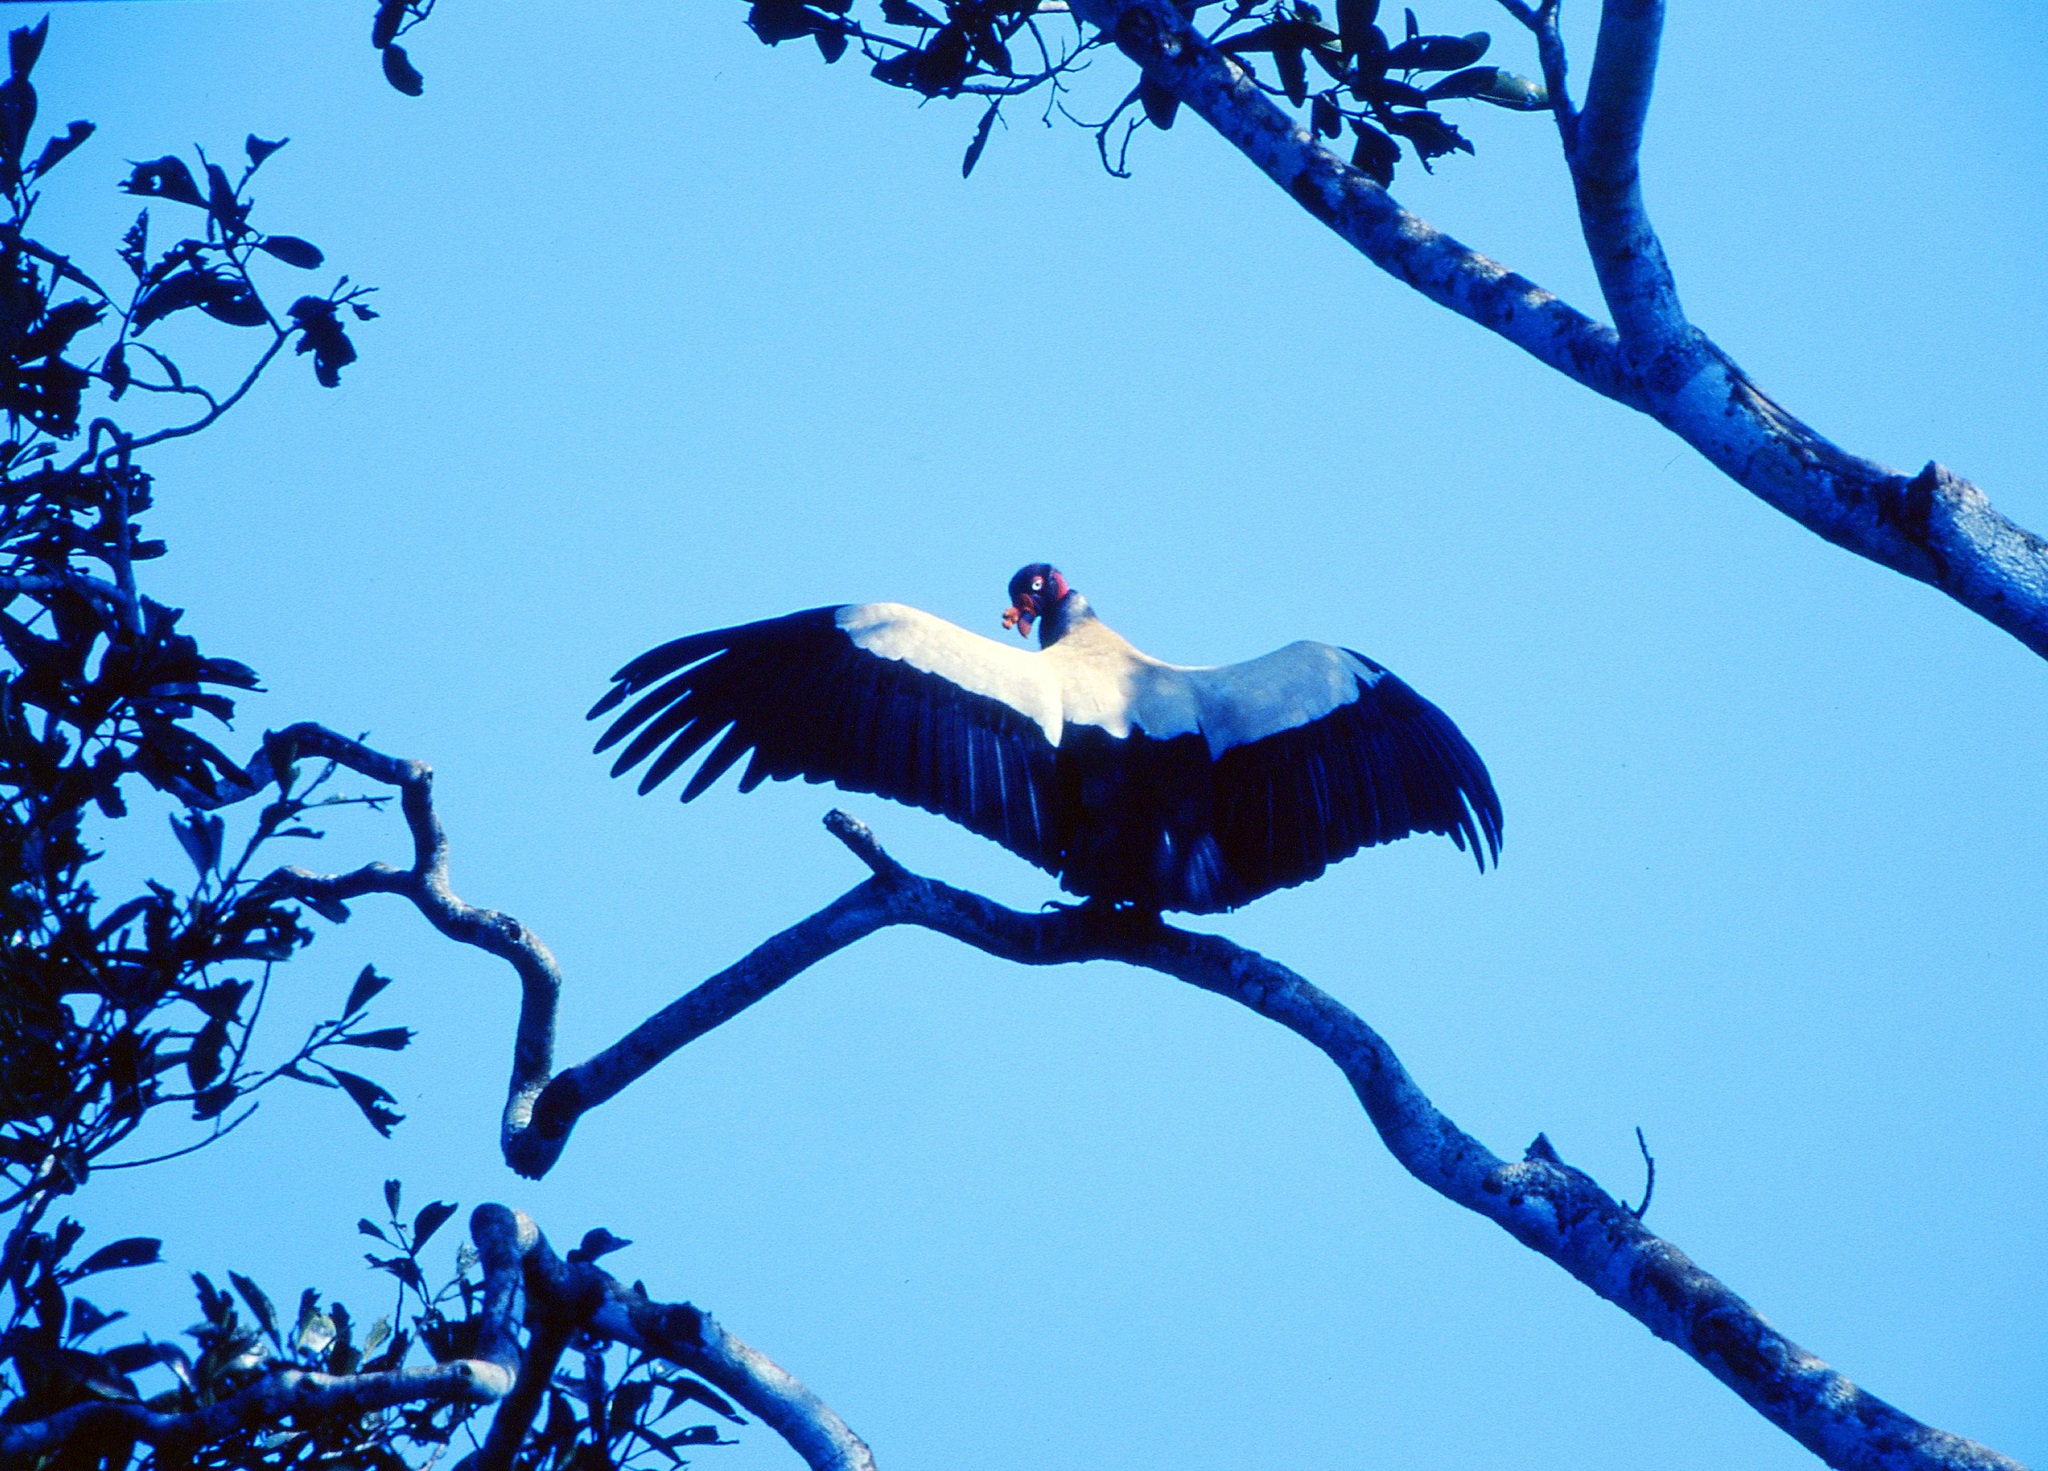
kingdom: Animalia
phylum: Chordata
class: Aves
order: Accipitriformes
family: Cathartidae
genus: Sarcoramphus
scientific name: Sarcoramphus papa
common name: King vulture
